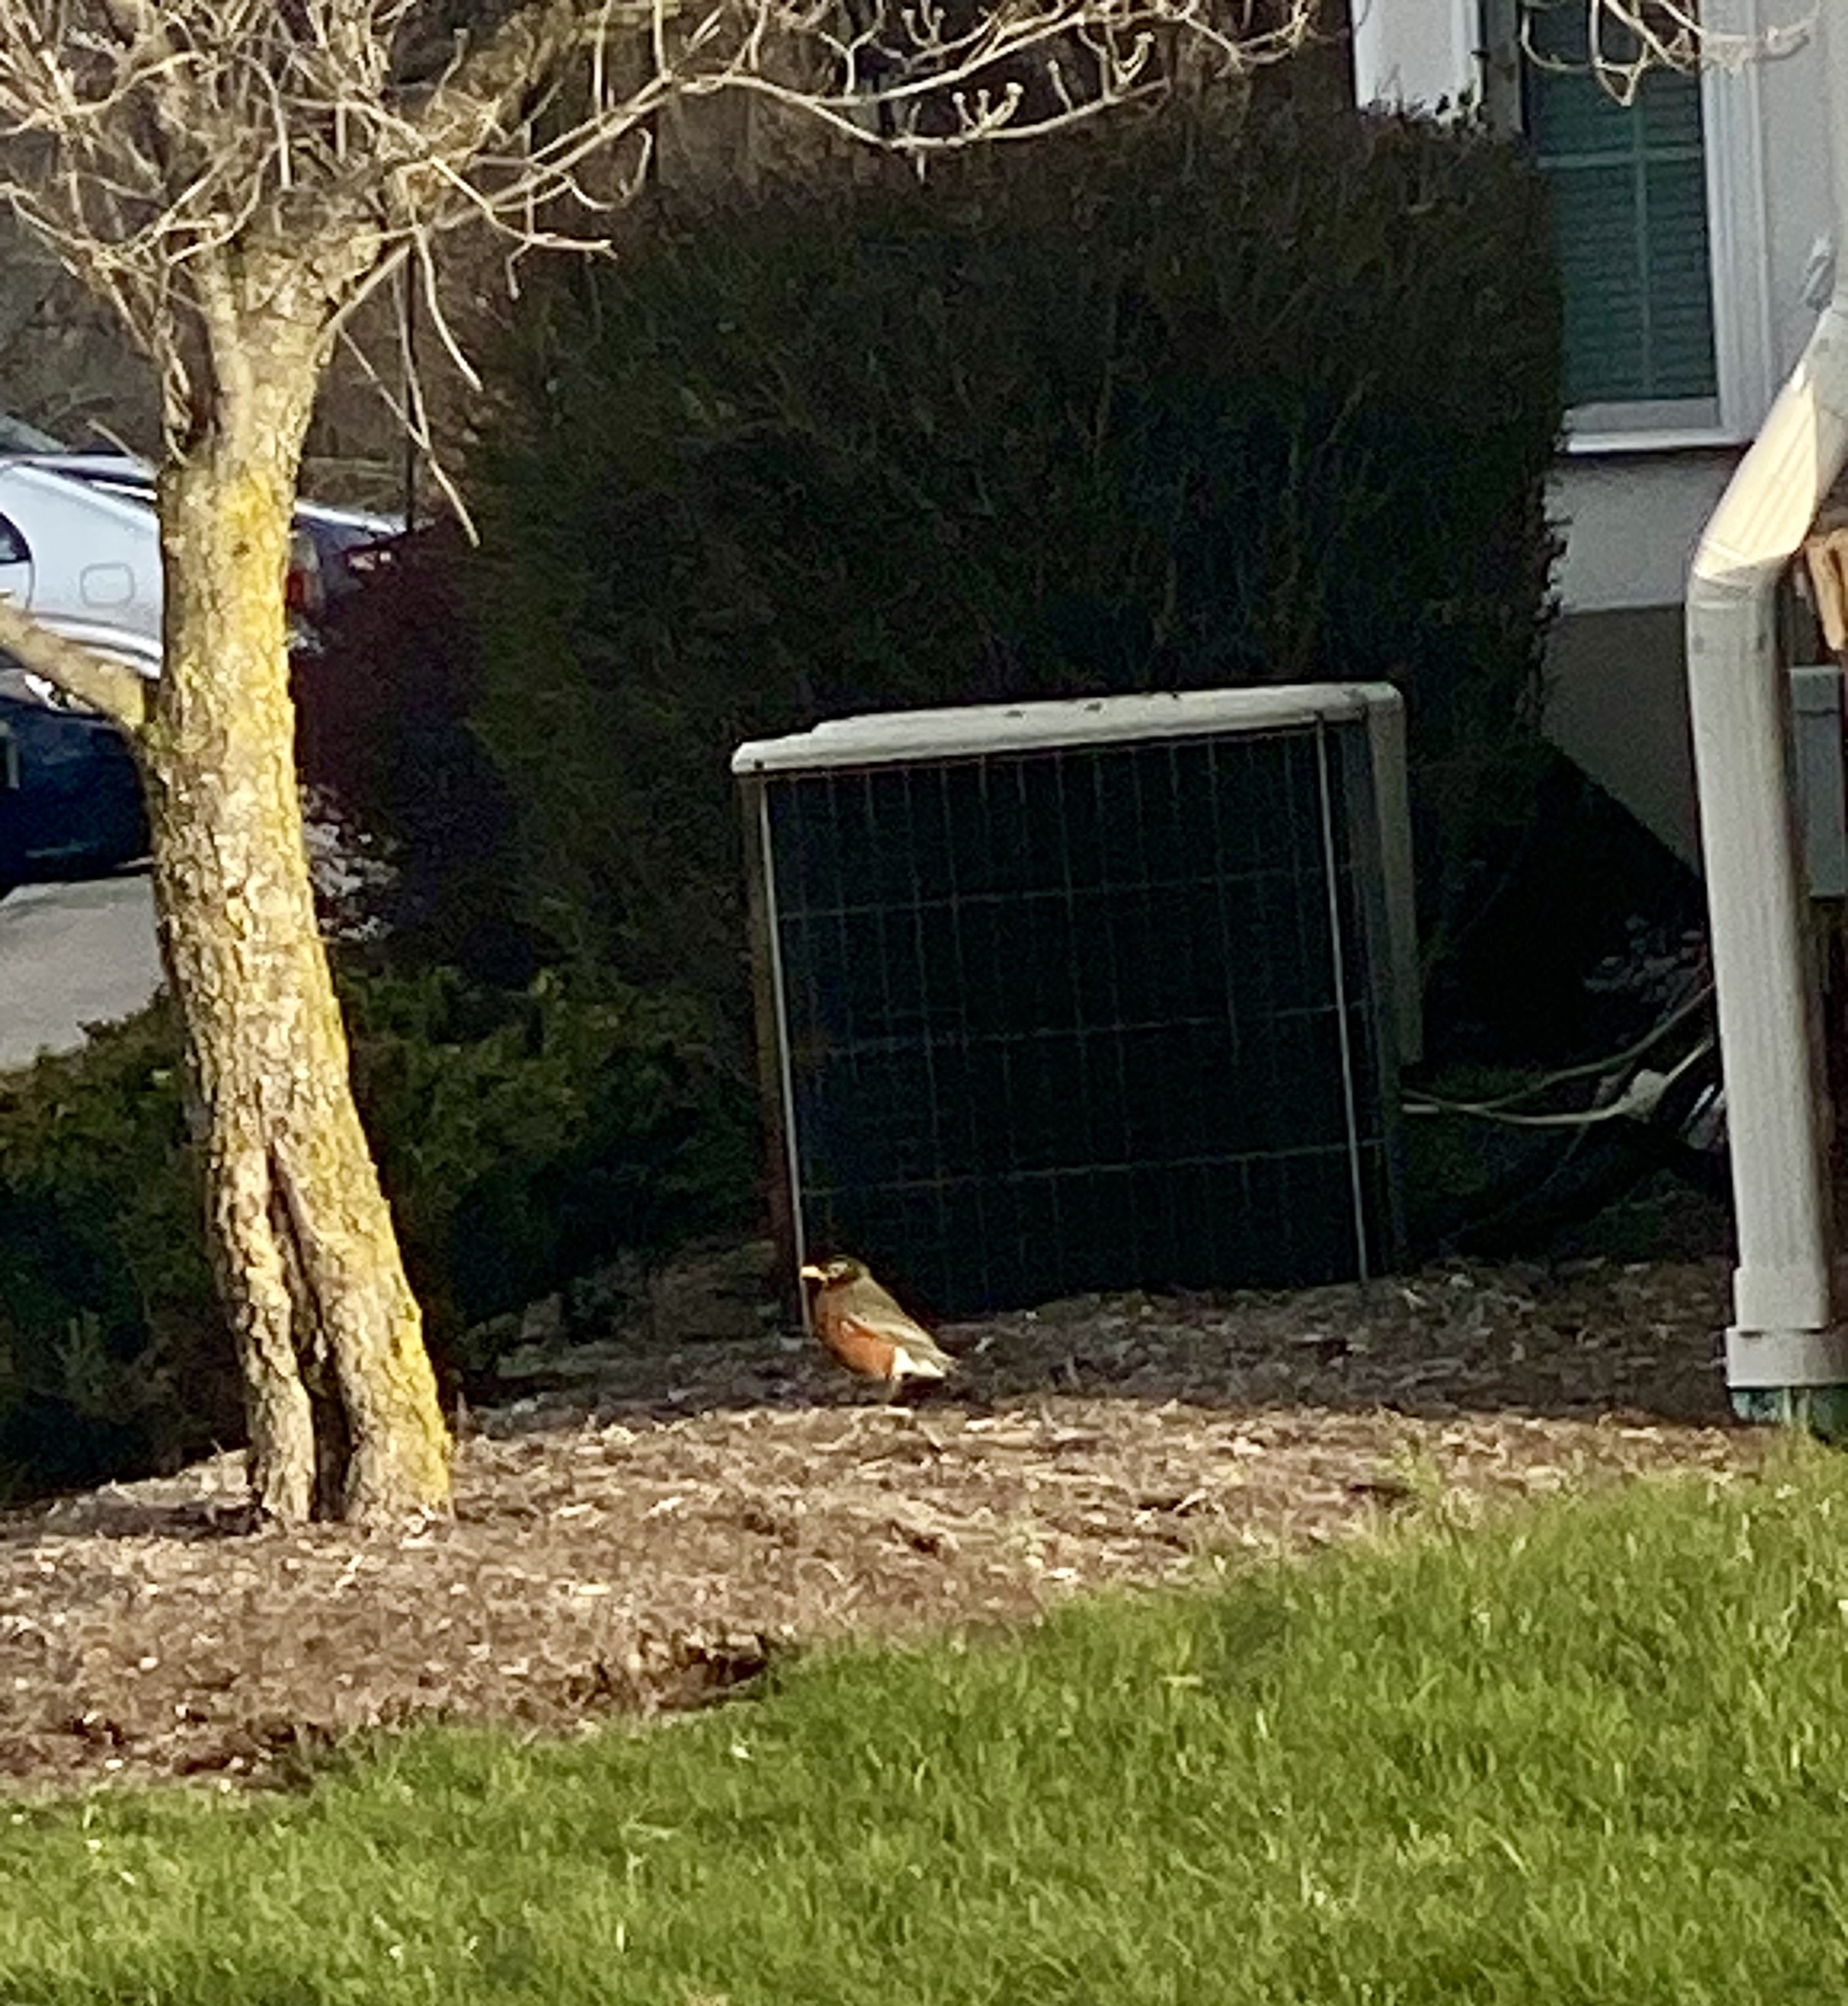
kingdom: Animalia
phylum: Chordata
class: Aves
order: Passeriformes
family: Turdidae
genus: Turdus
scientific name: Turdus migratorius
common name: American robin
